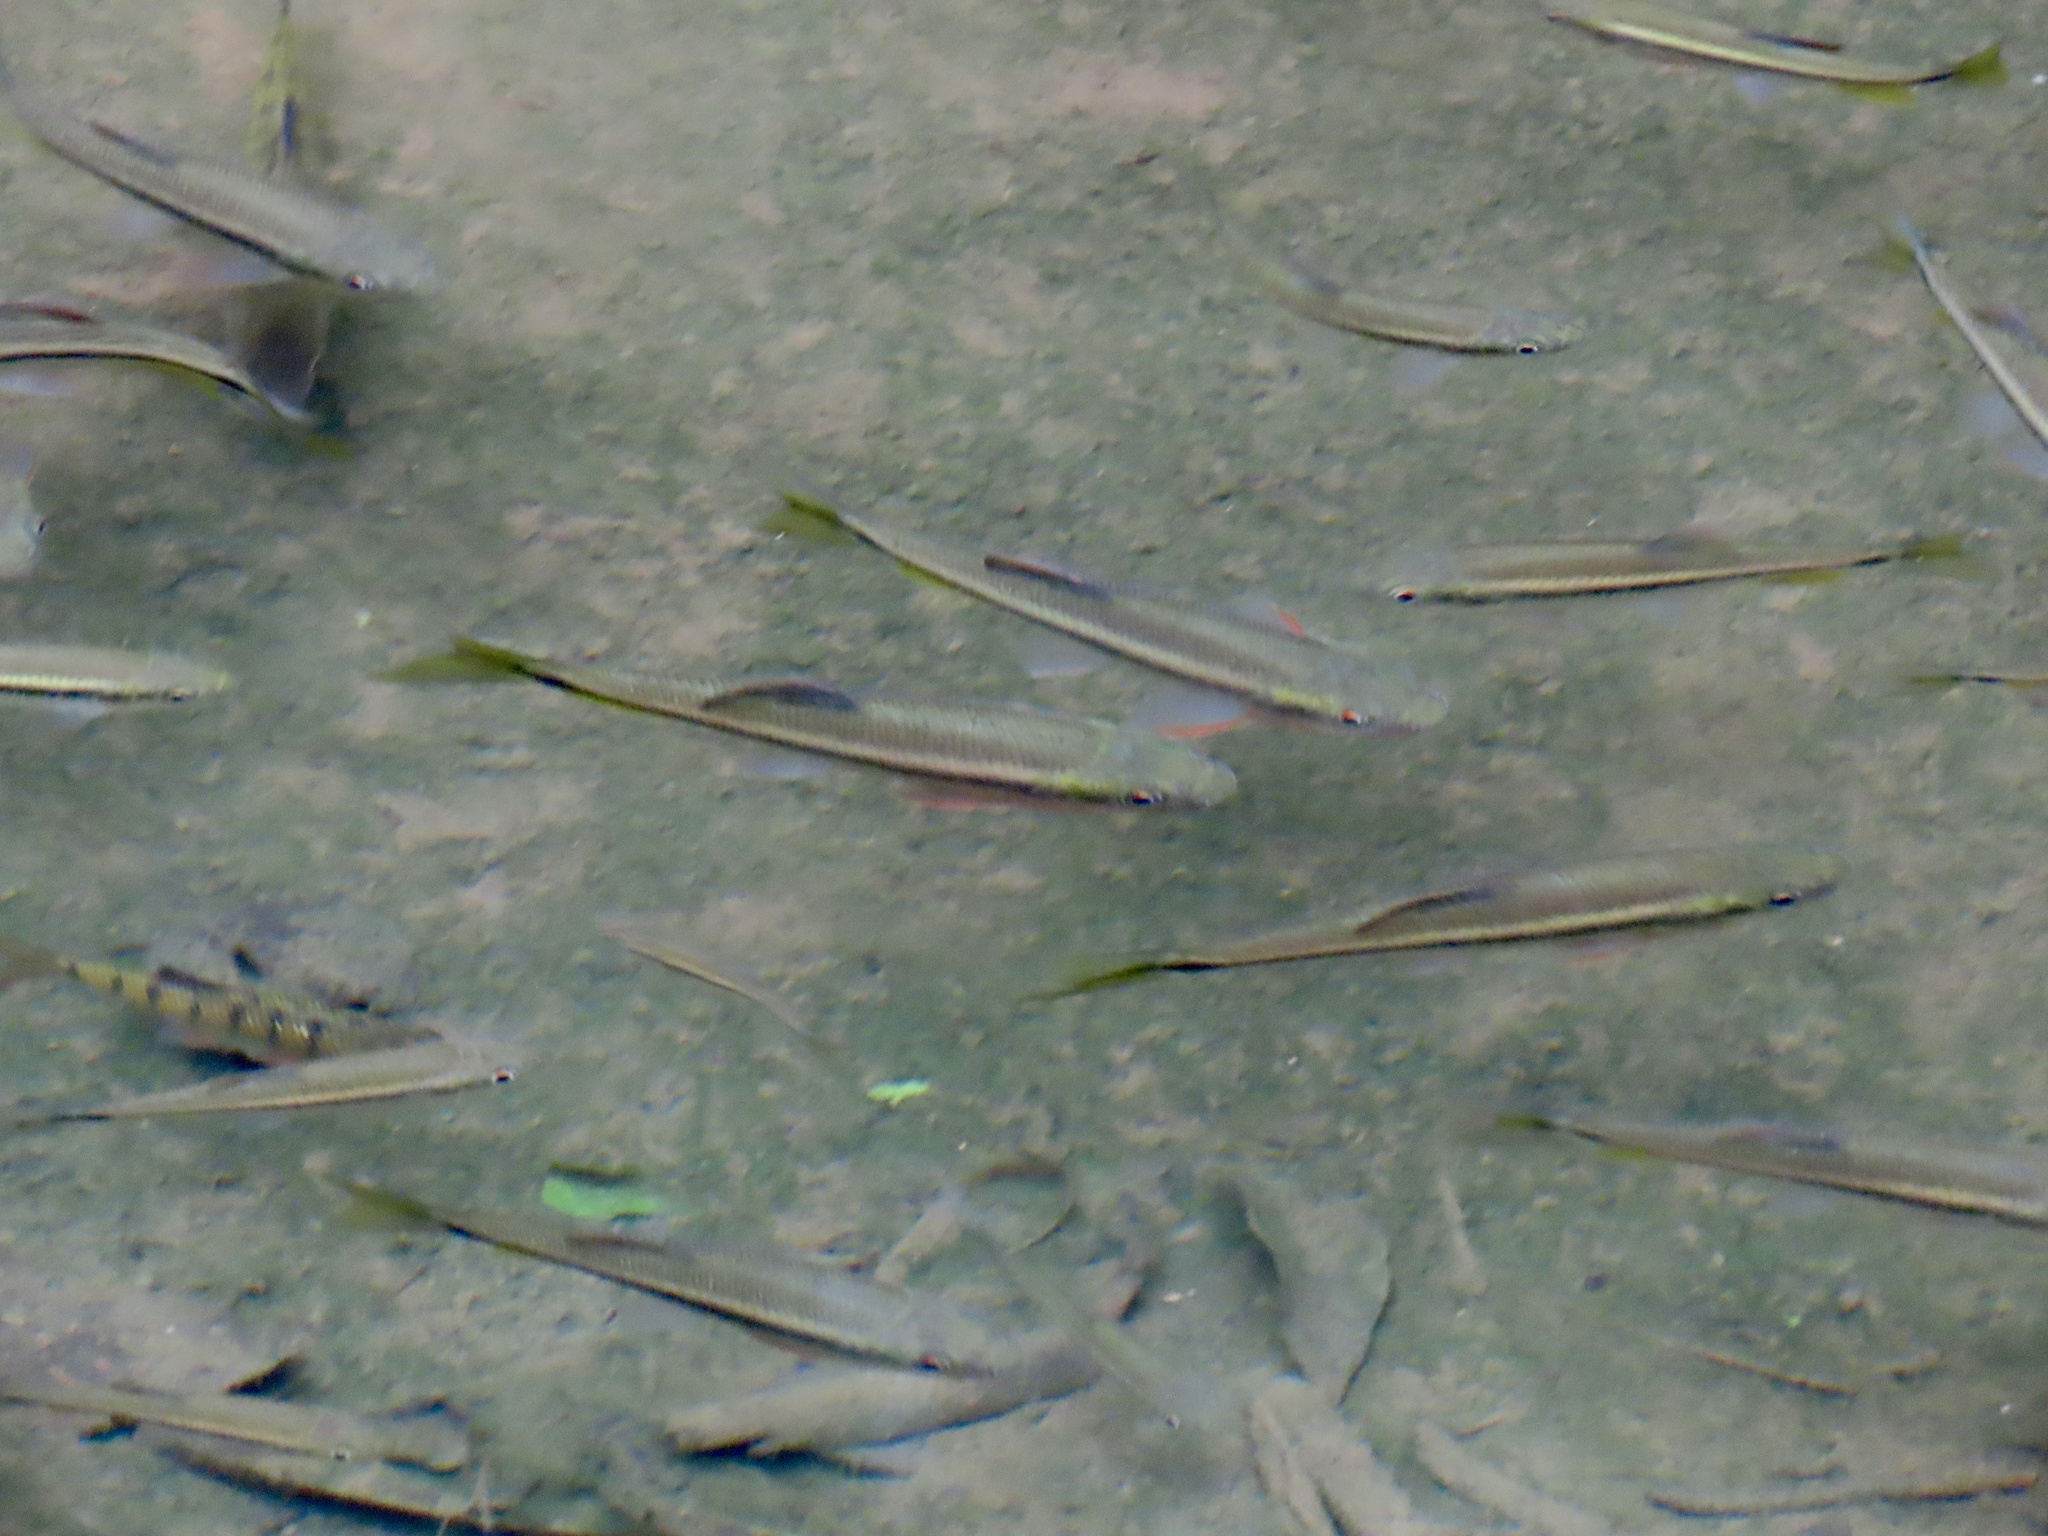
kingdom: Animalia
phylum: Chordata
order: Cypriniformes
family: Cyprinidae
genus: Candidia
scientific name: Candidia barbata
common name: Lake candidus dace
